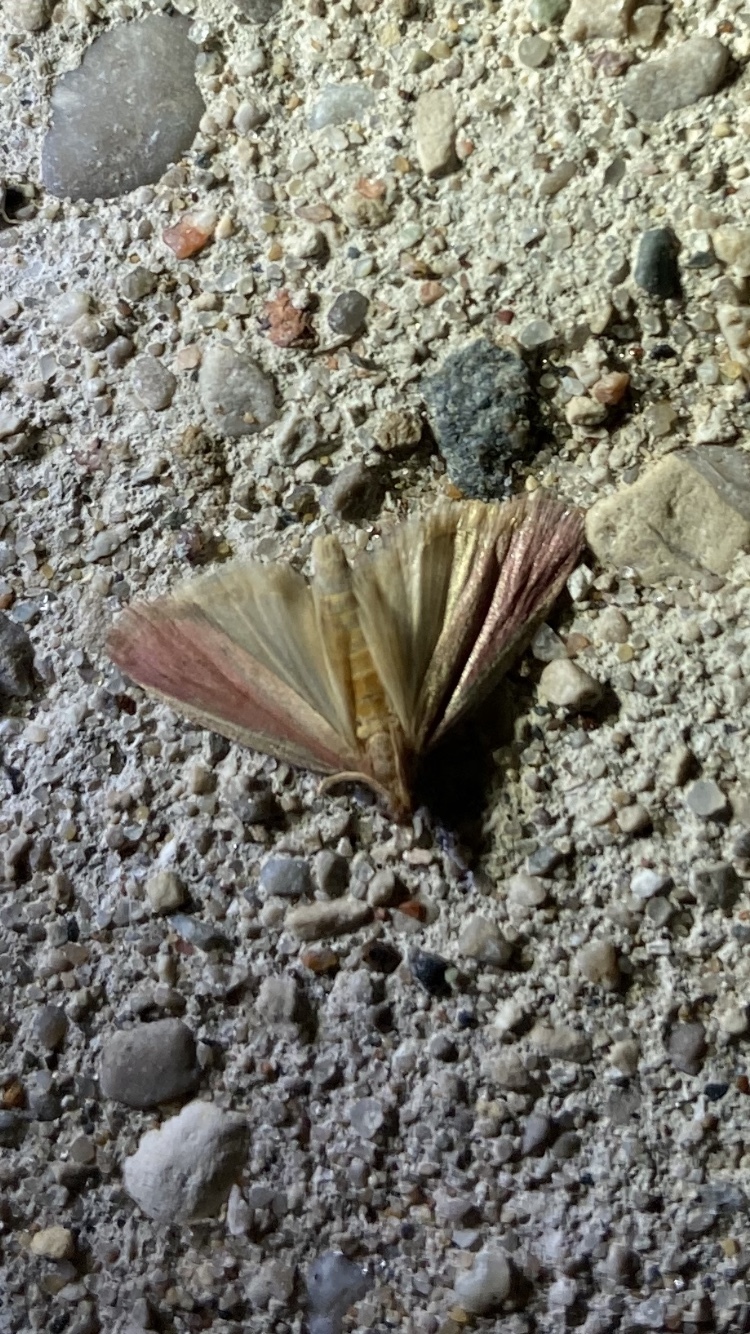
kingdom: Animalia
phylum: Arthropoda
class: Insecta
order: Lepidoptera
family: Noctuidae
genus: Dargida
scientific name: Dargida rubripennis
